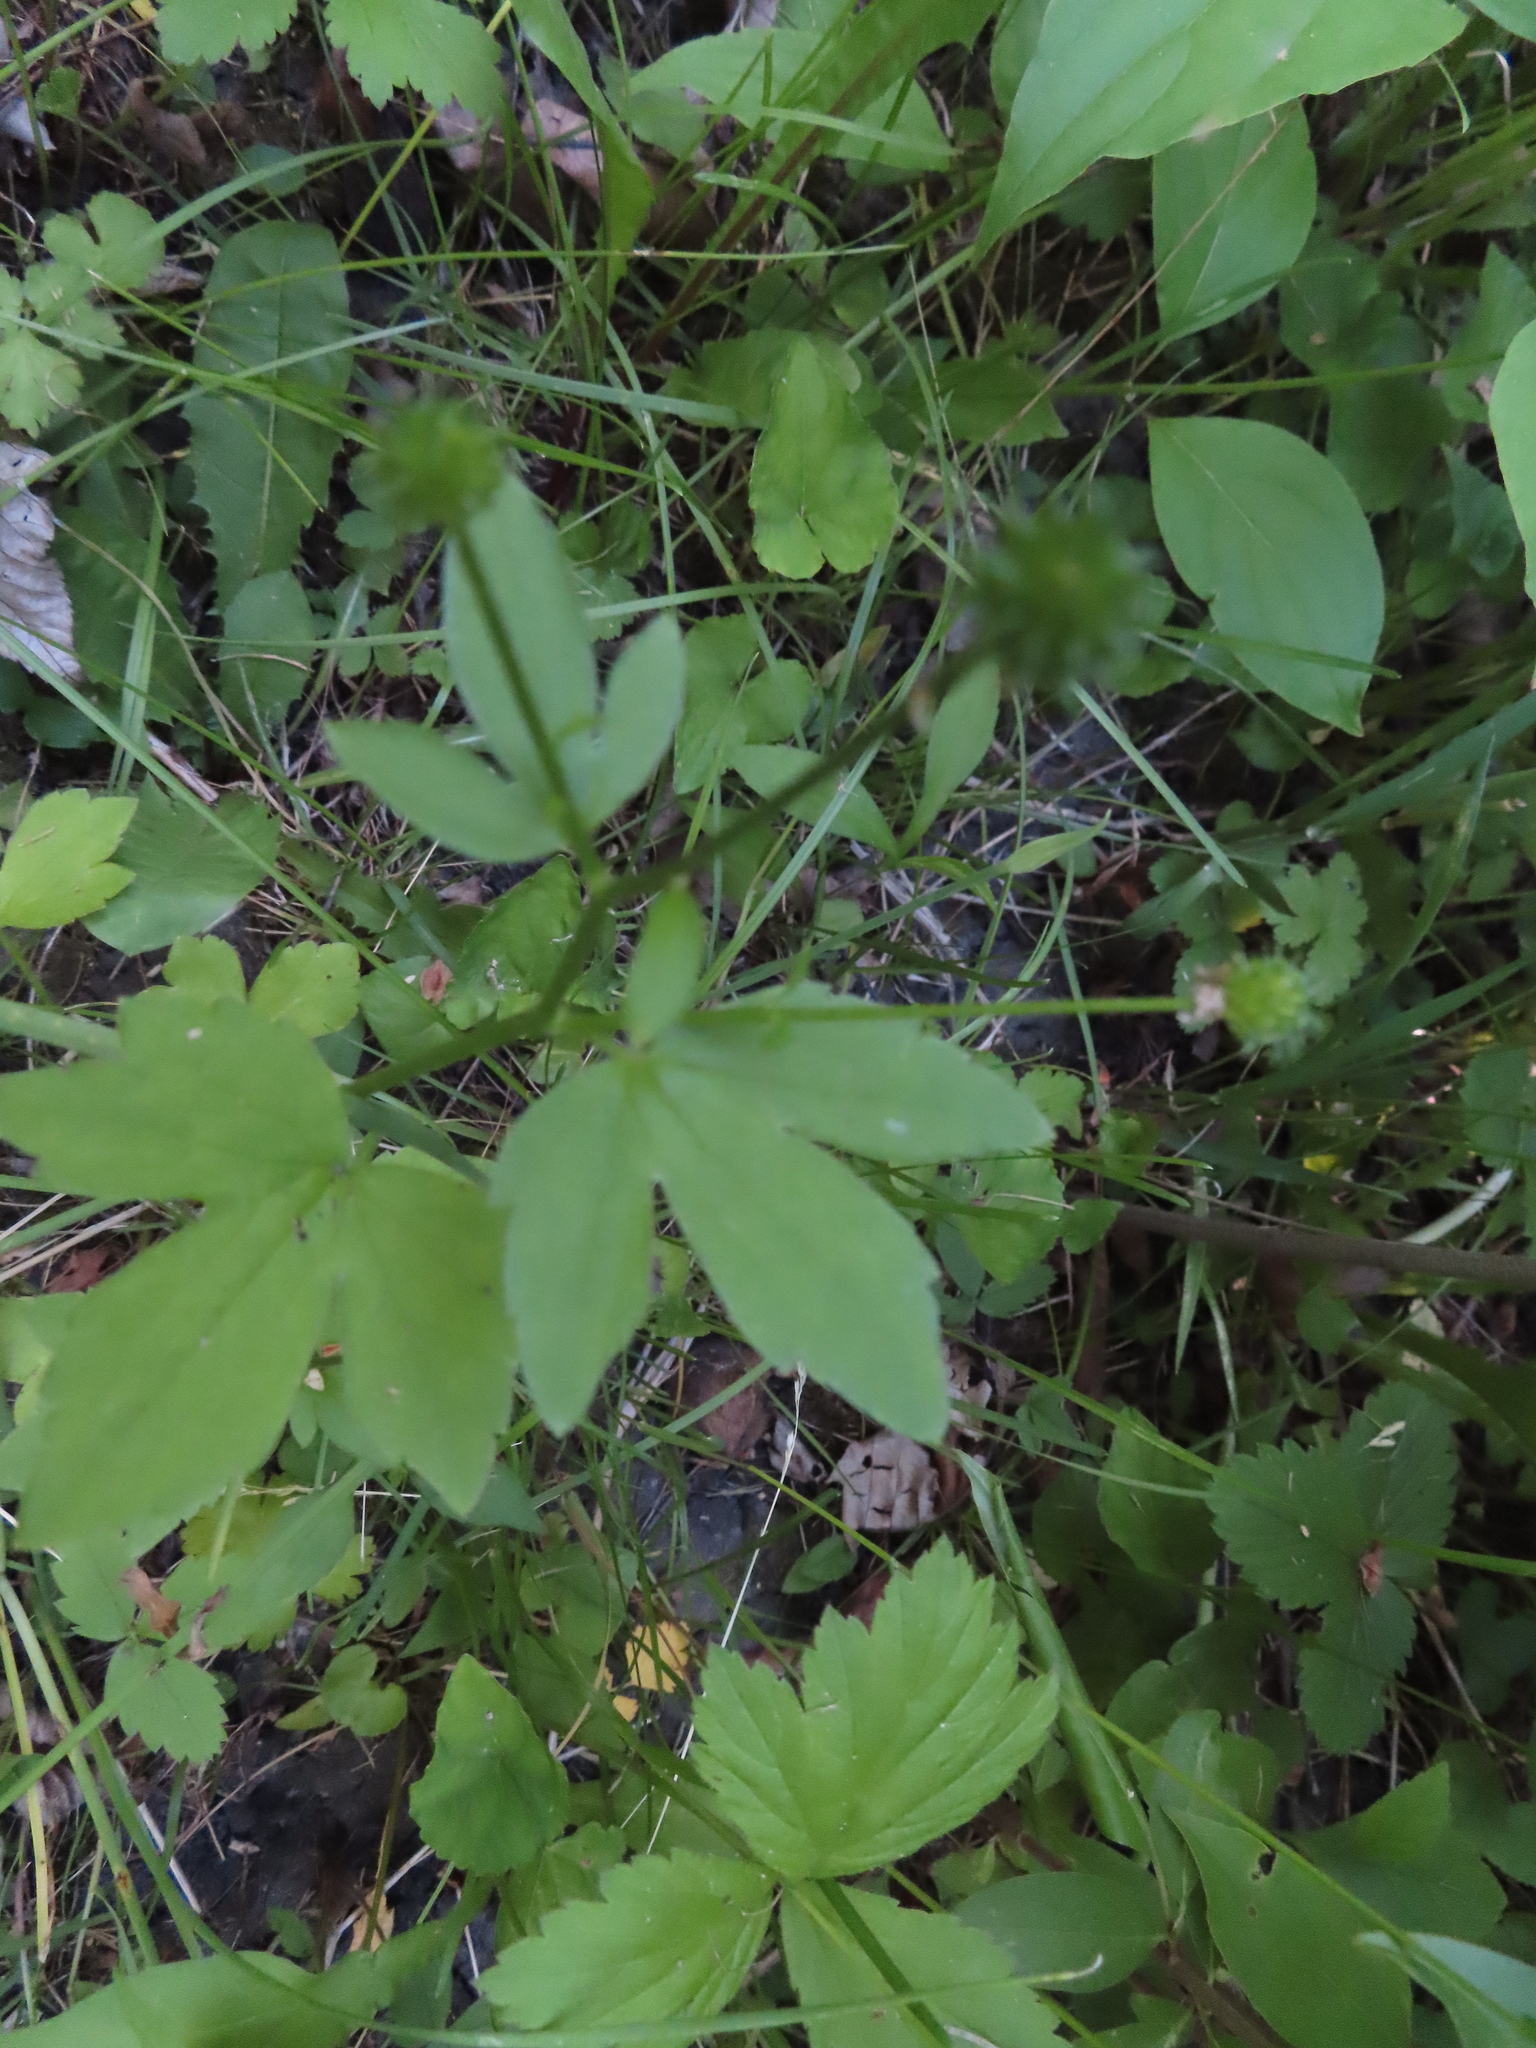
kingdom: Plantae
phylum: Tracheophyta
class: Magnoliopsida
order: Ranunculales
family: Ranunculaceae
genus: Ranunculus
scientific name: Ranunculus recurvatus
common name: Blisterwort
